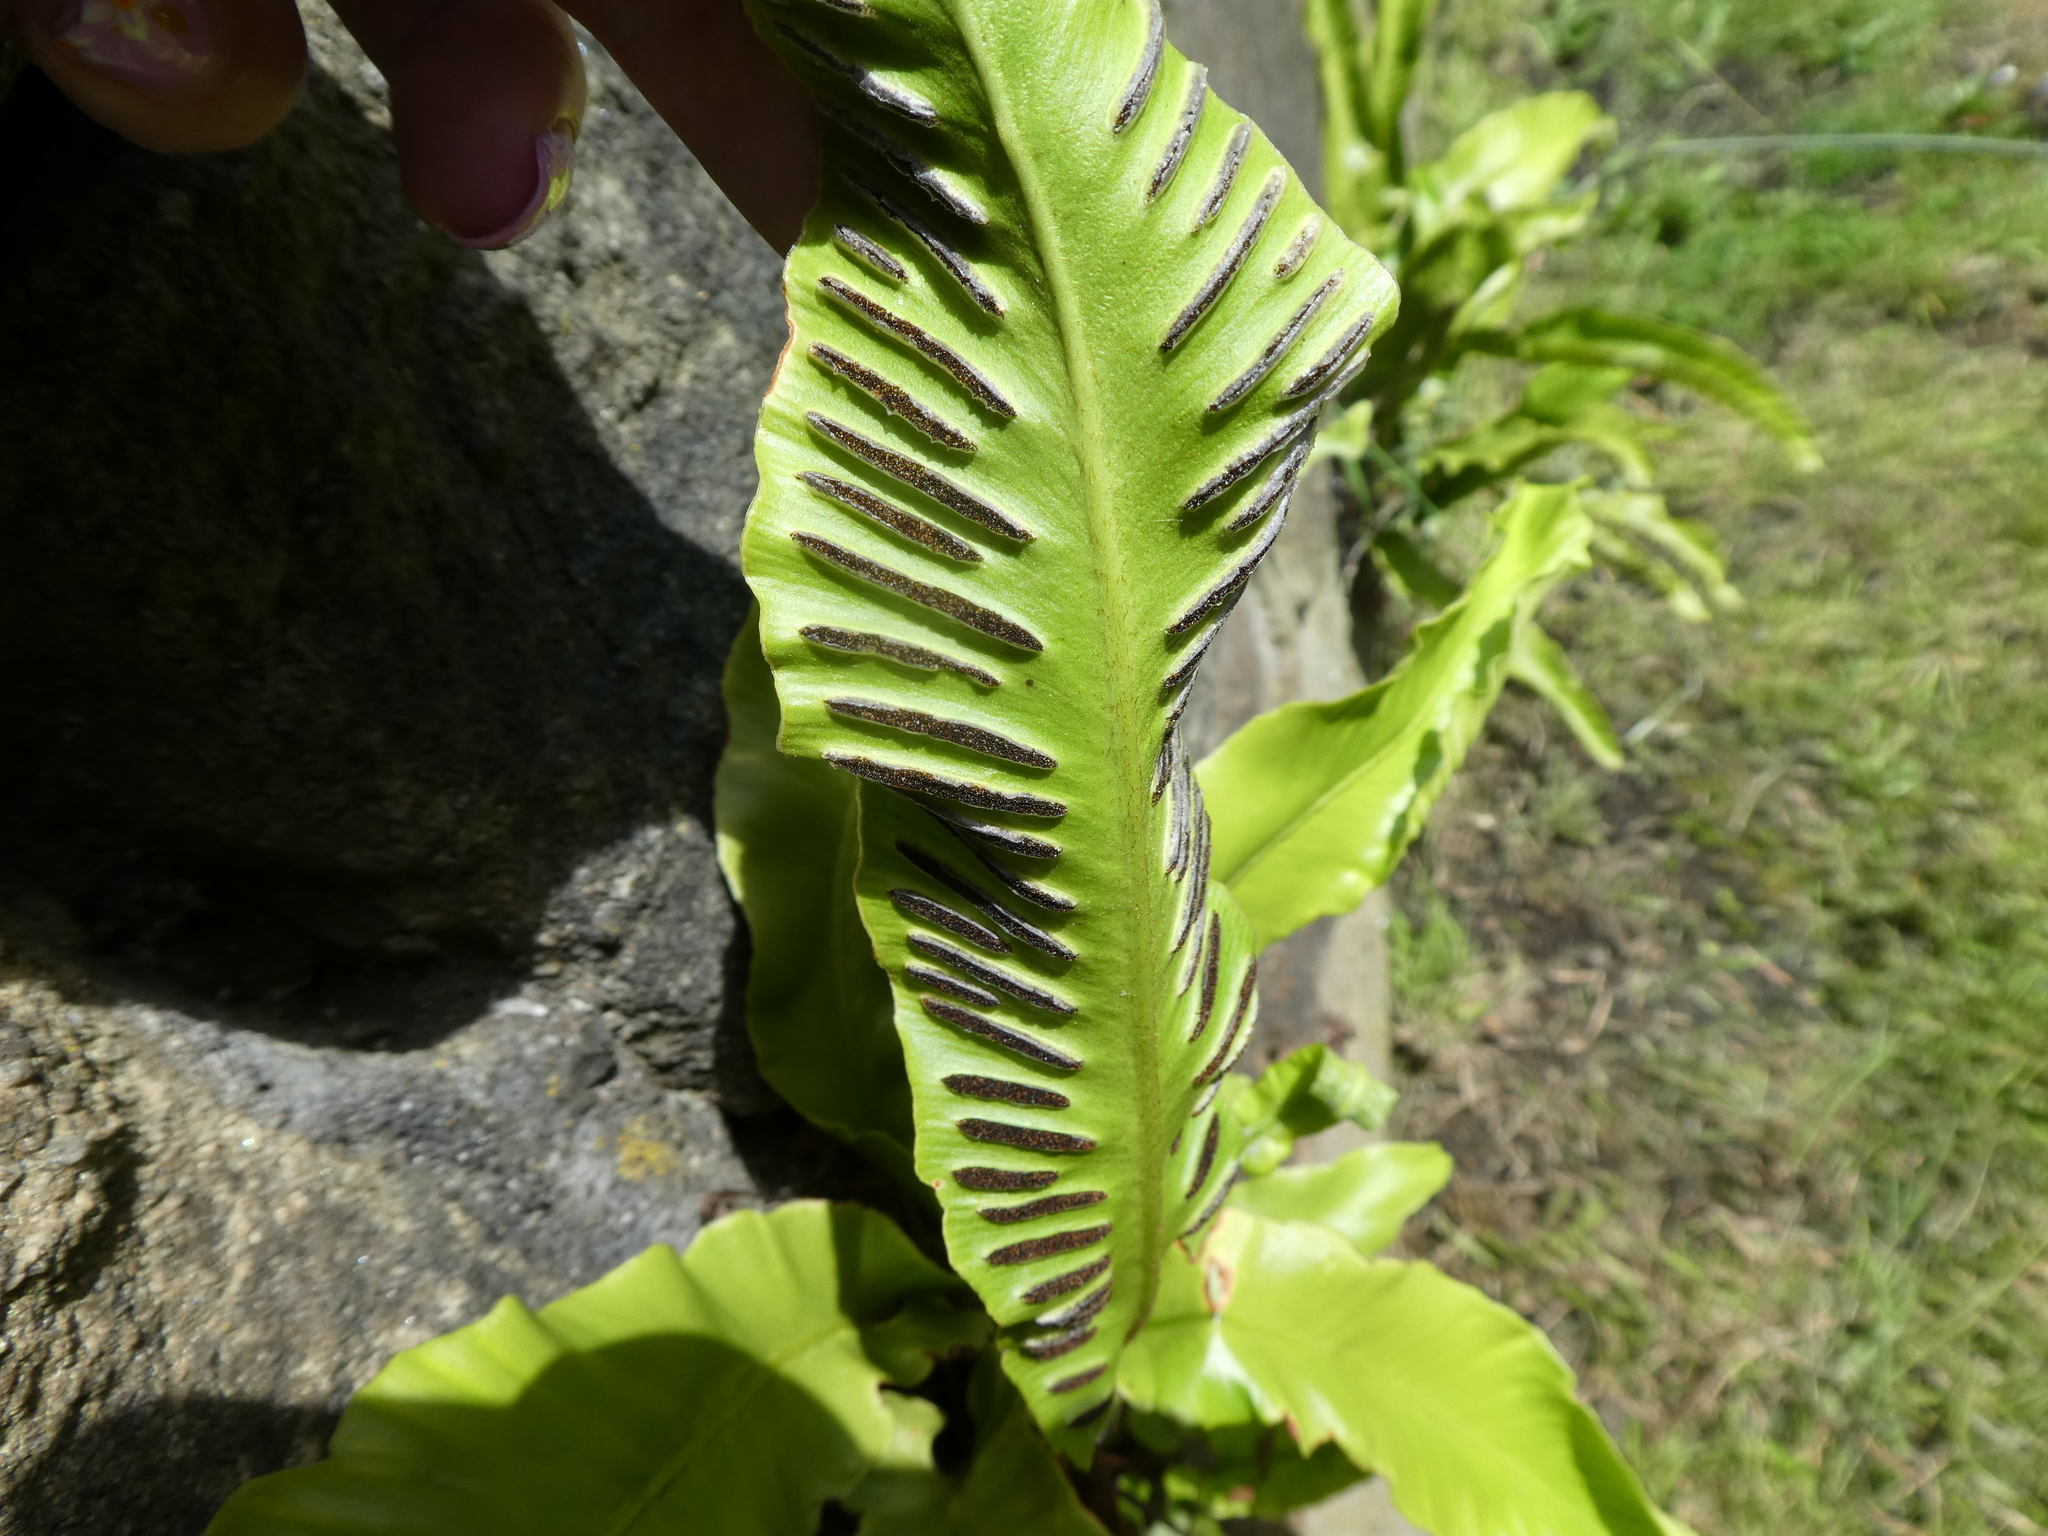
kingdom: Plantae
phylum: Tracheophyta
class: Polypodiopsida
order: Polypodiales
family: Aspleniaceae
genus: Asplenium
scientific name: Asplenium scolopendrium
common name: Hart's-tongue fern
